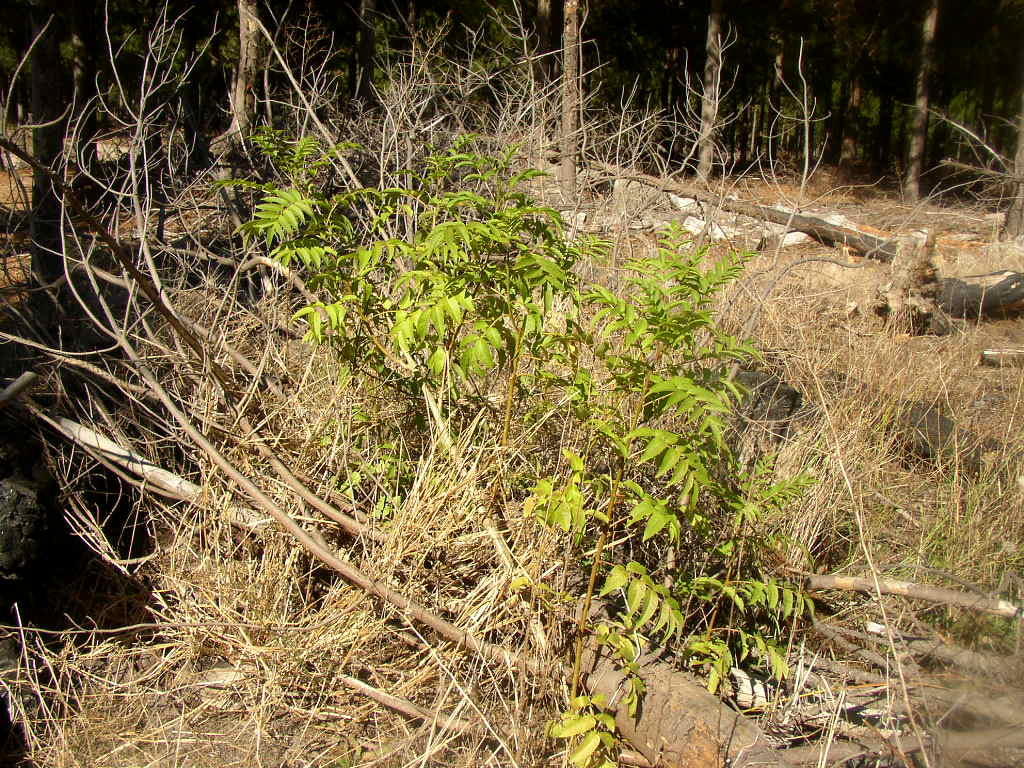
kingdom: Plantae
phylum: Tracheophyta
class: Magnoliopsida
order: Sapindales
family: Meliaceae
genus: Melia
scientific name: Melia azedarach
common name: Chinaberrytree
